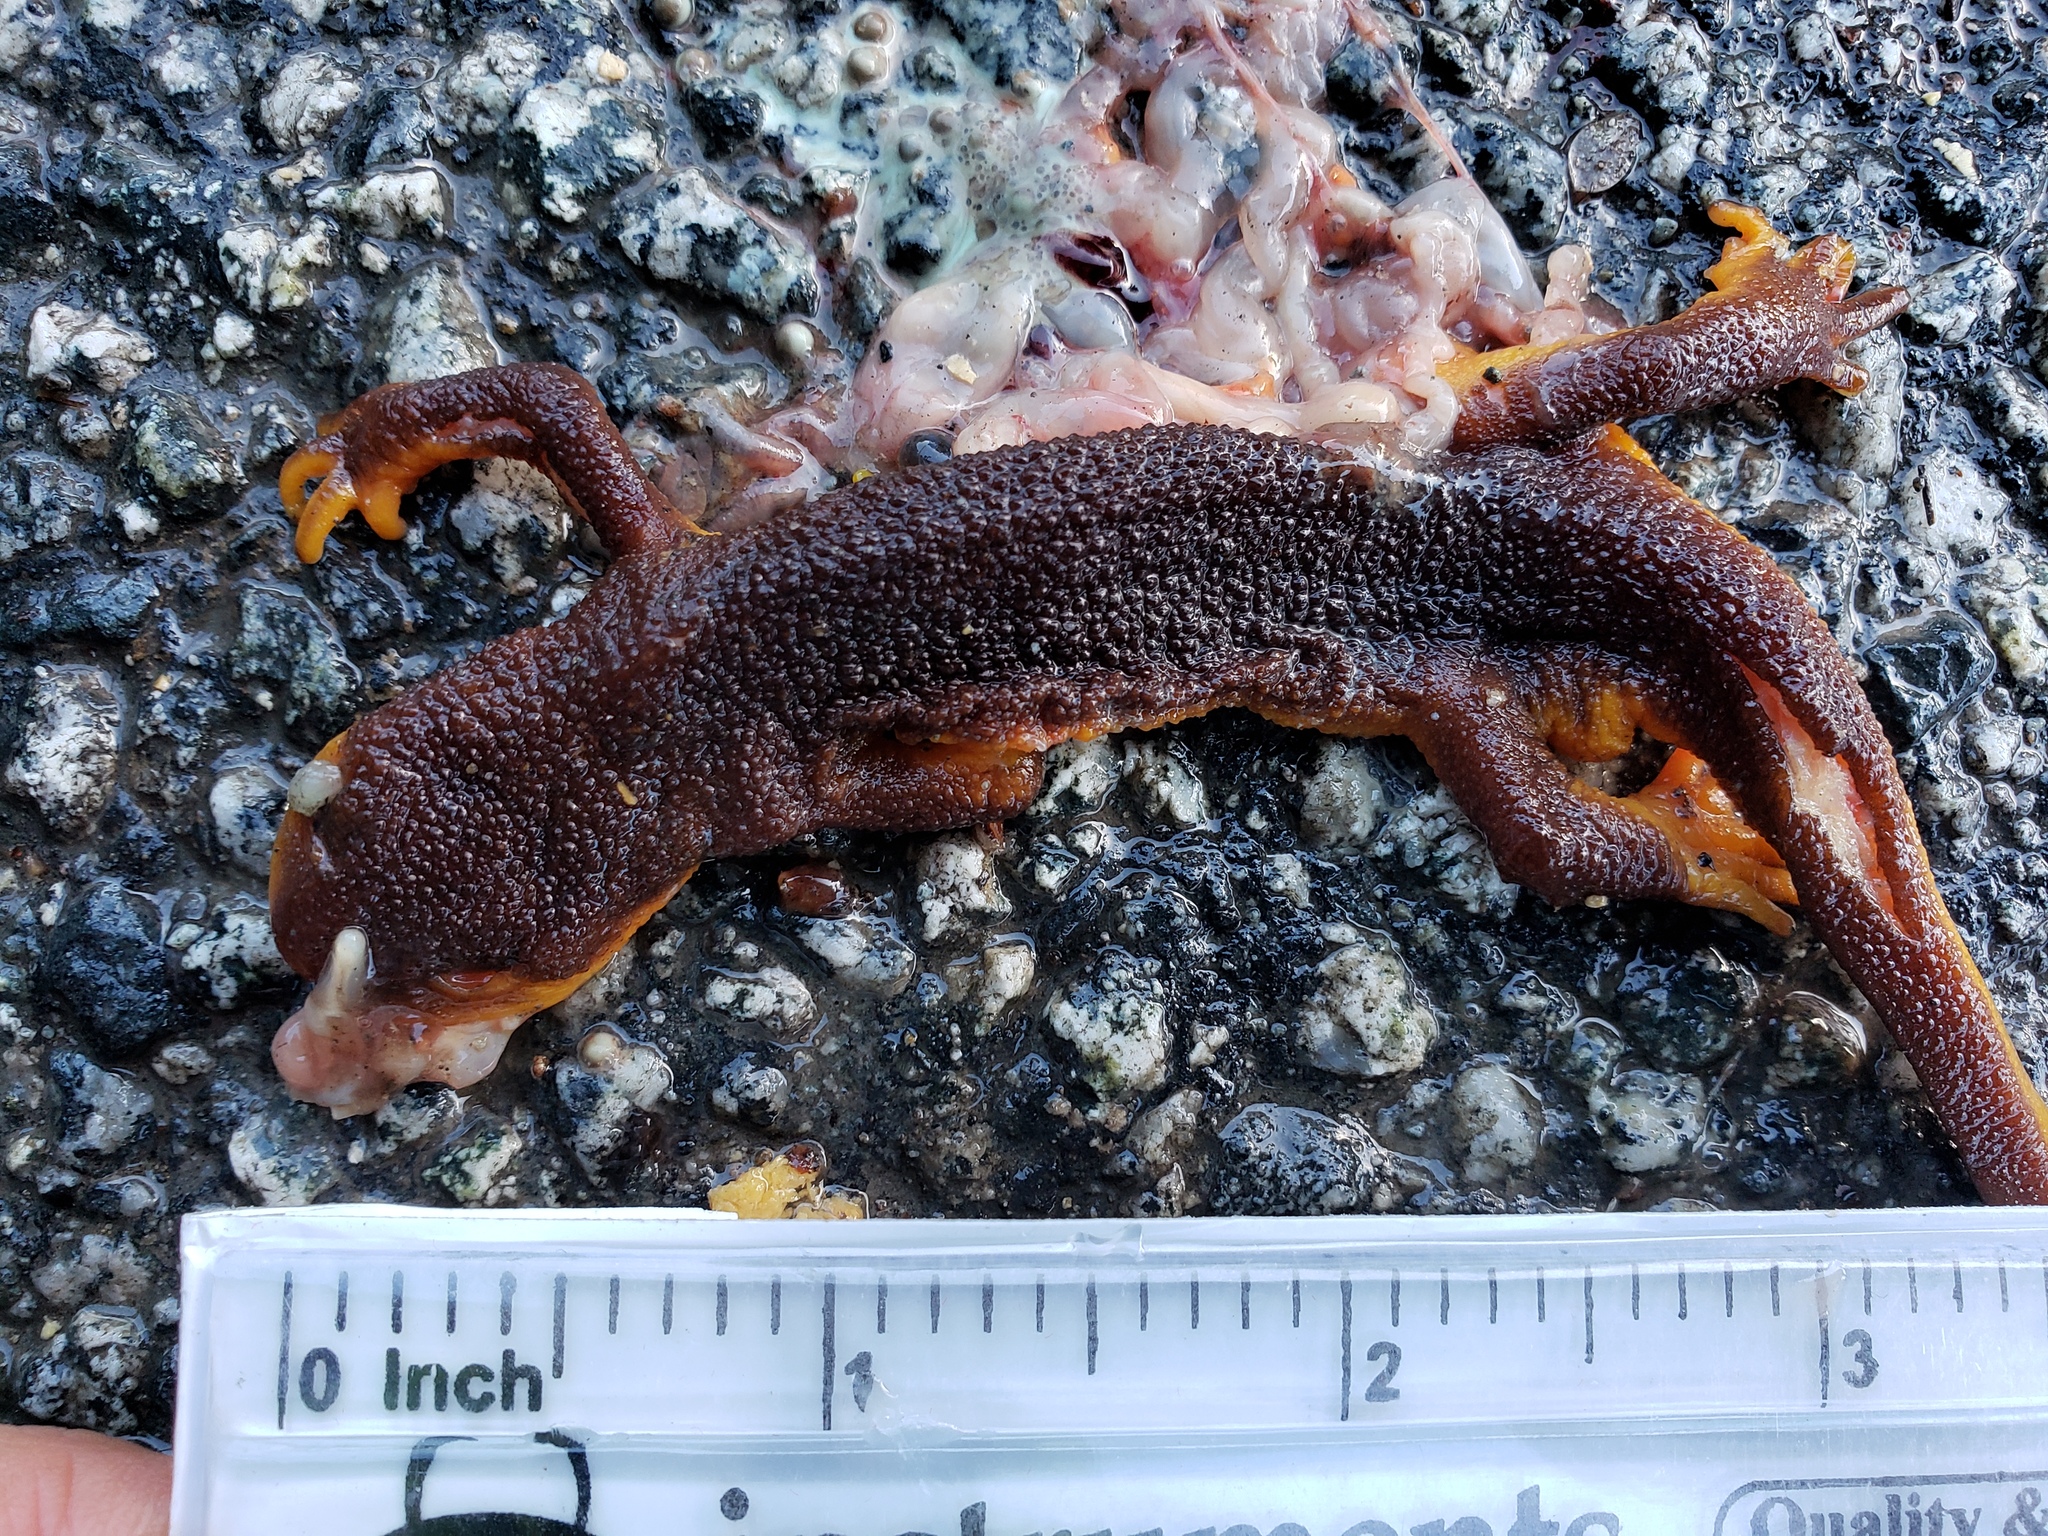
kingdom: Animalia
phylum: Chordata
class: Amphibia
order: Caudata
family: Salamandridae
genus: Taricha
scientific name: Taricha
